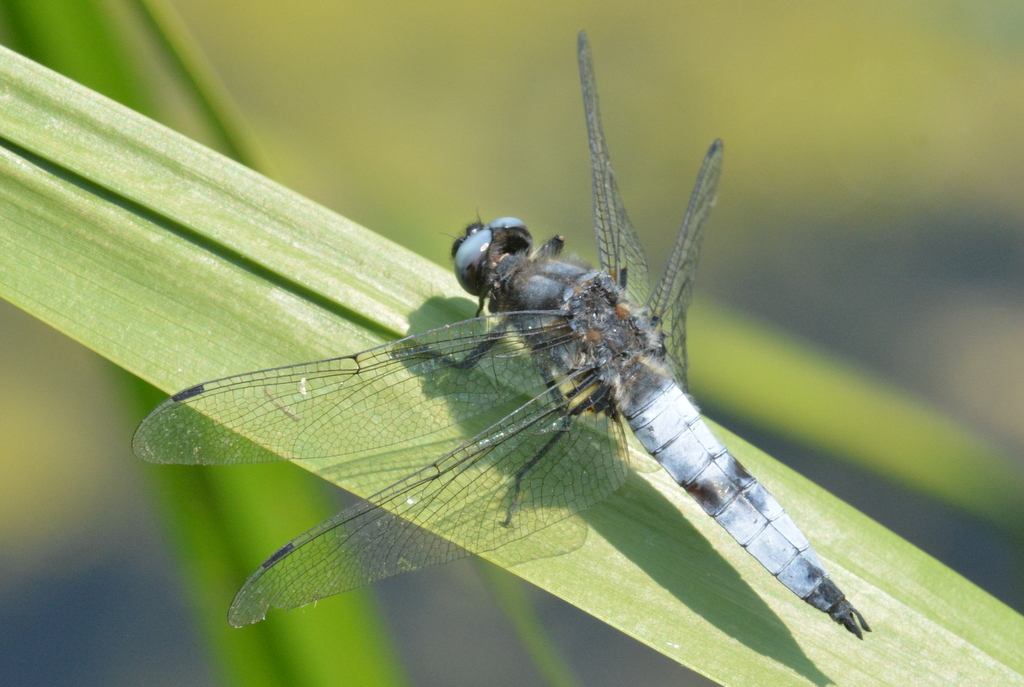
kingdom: Animalia
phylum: Arthropoda
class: Insecta
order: Odonata
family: Libellulidae
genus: Libellula
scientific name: Libellula fulva
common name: Blue chaser
